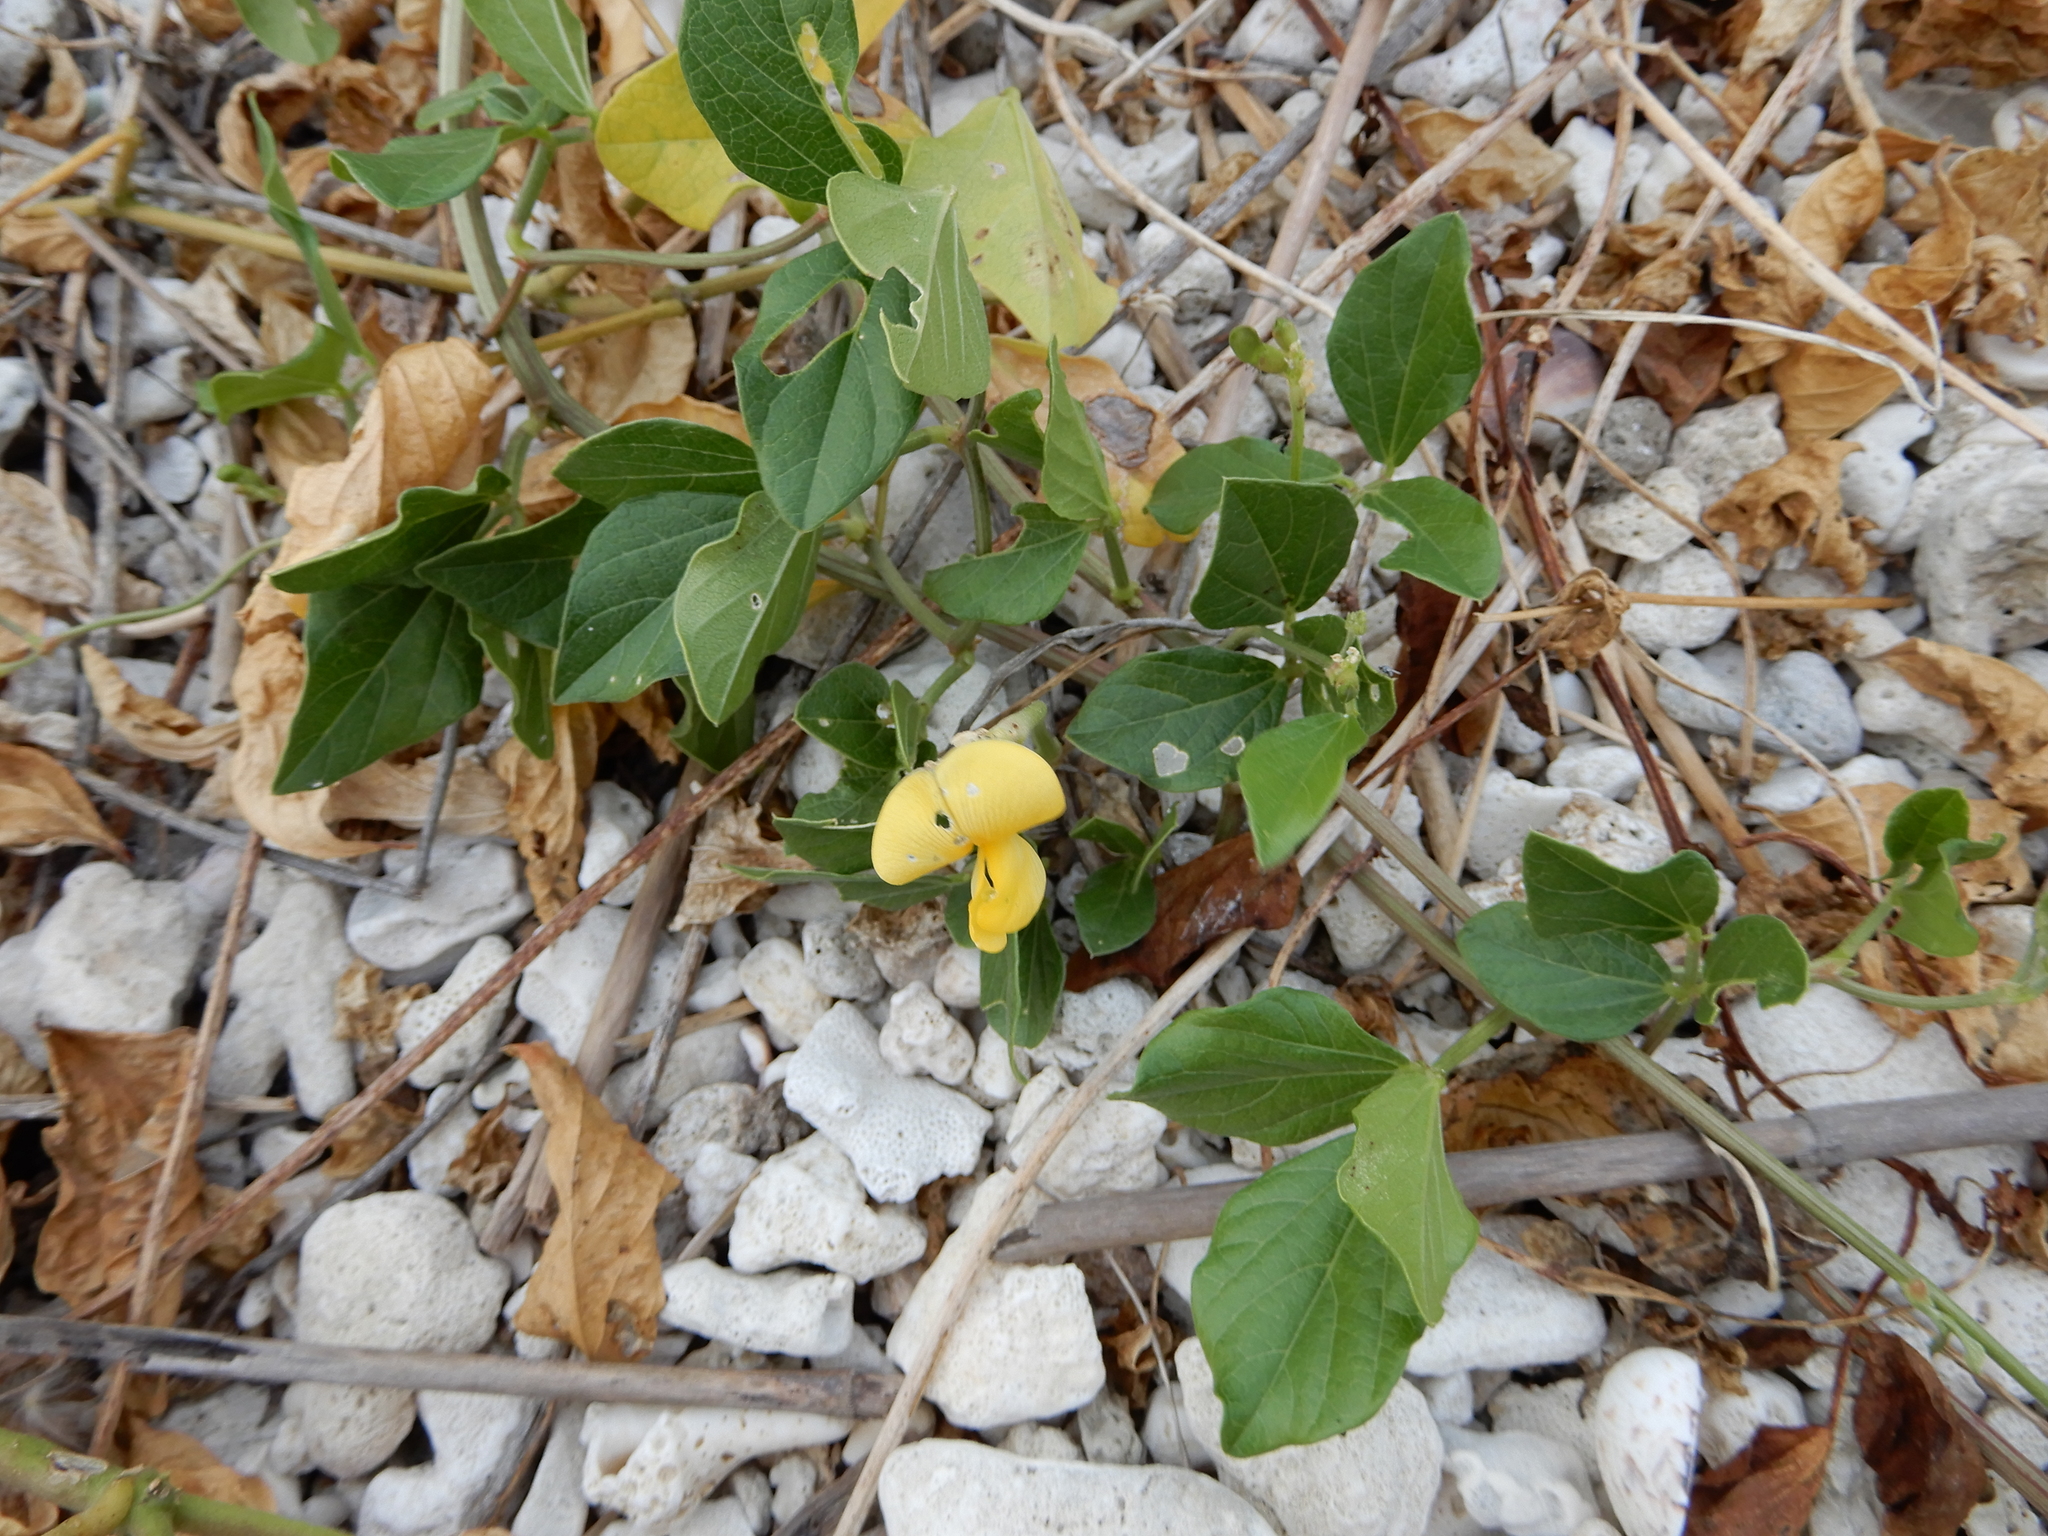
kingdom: Plantae
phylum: Tracheophyta
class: Magnoliopsida
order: Fabales
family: Fabaceae
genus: Vigna
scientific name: Vigna marina
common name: Dune-bean
